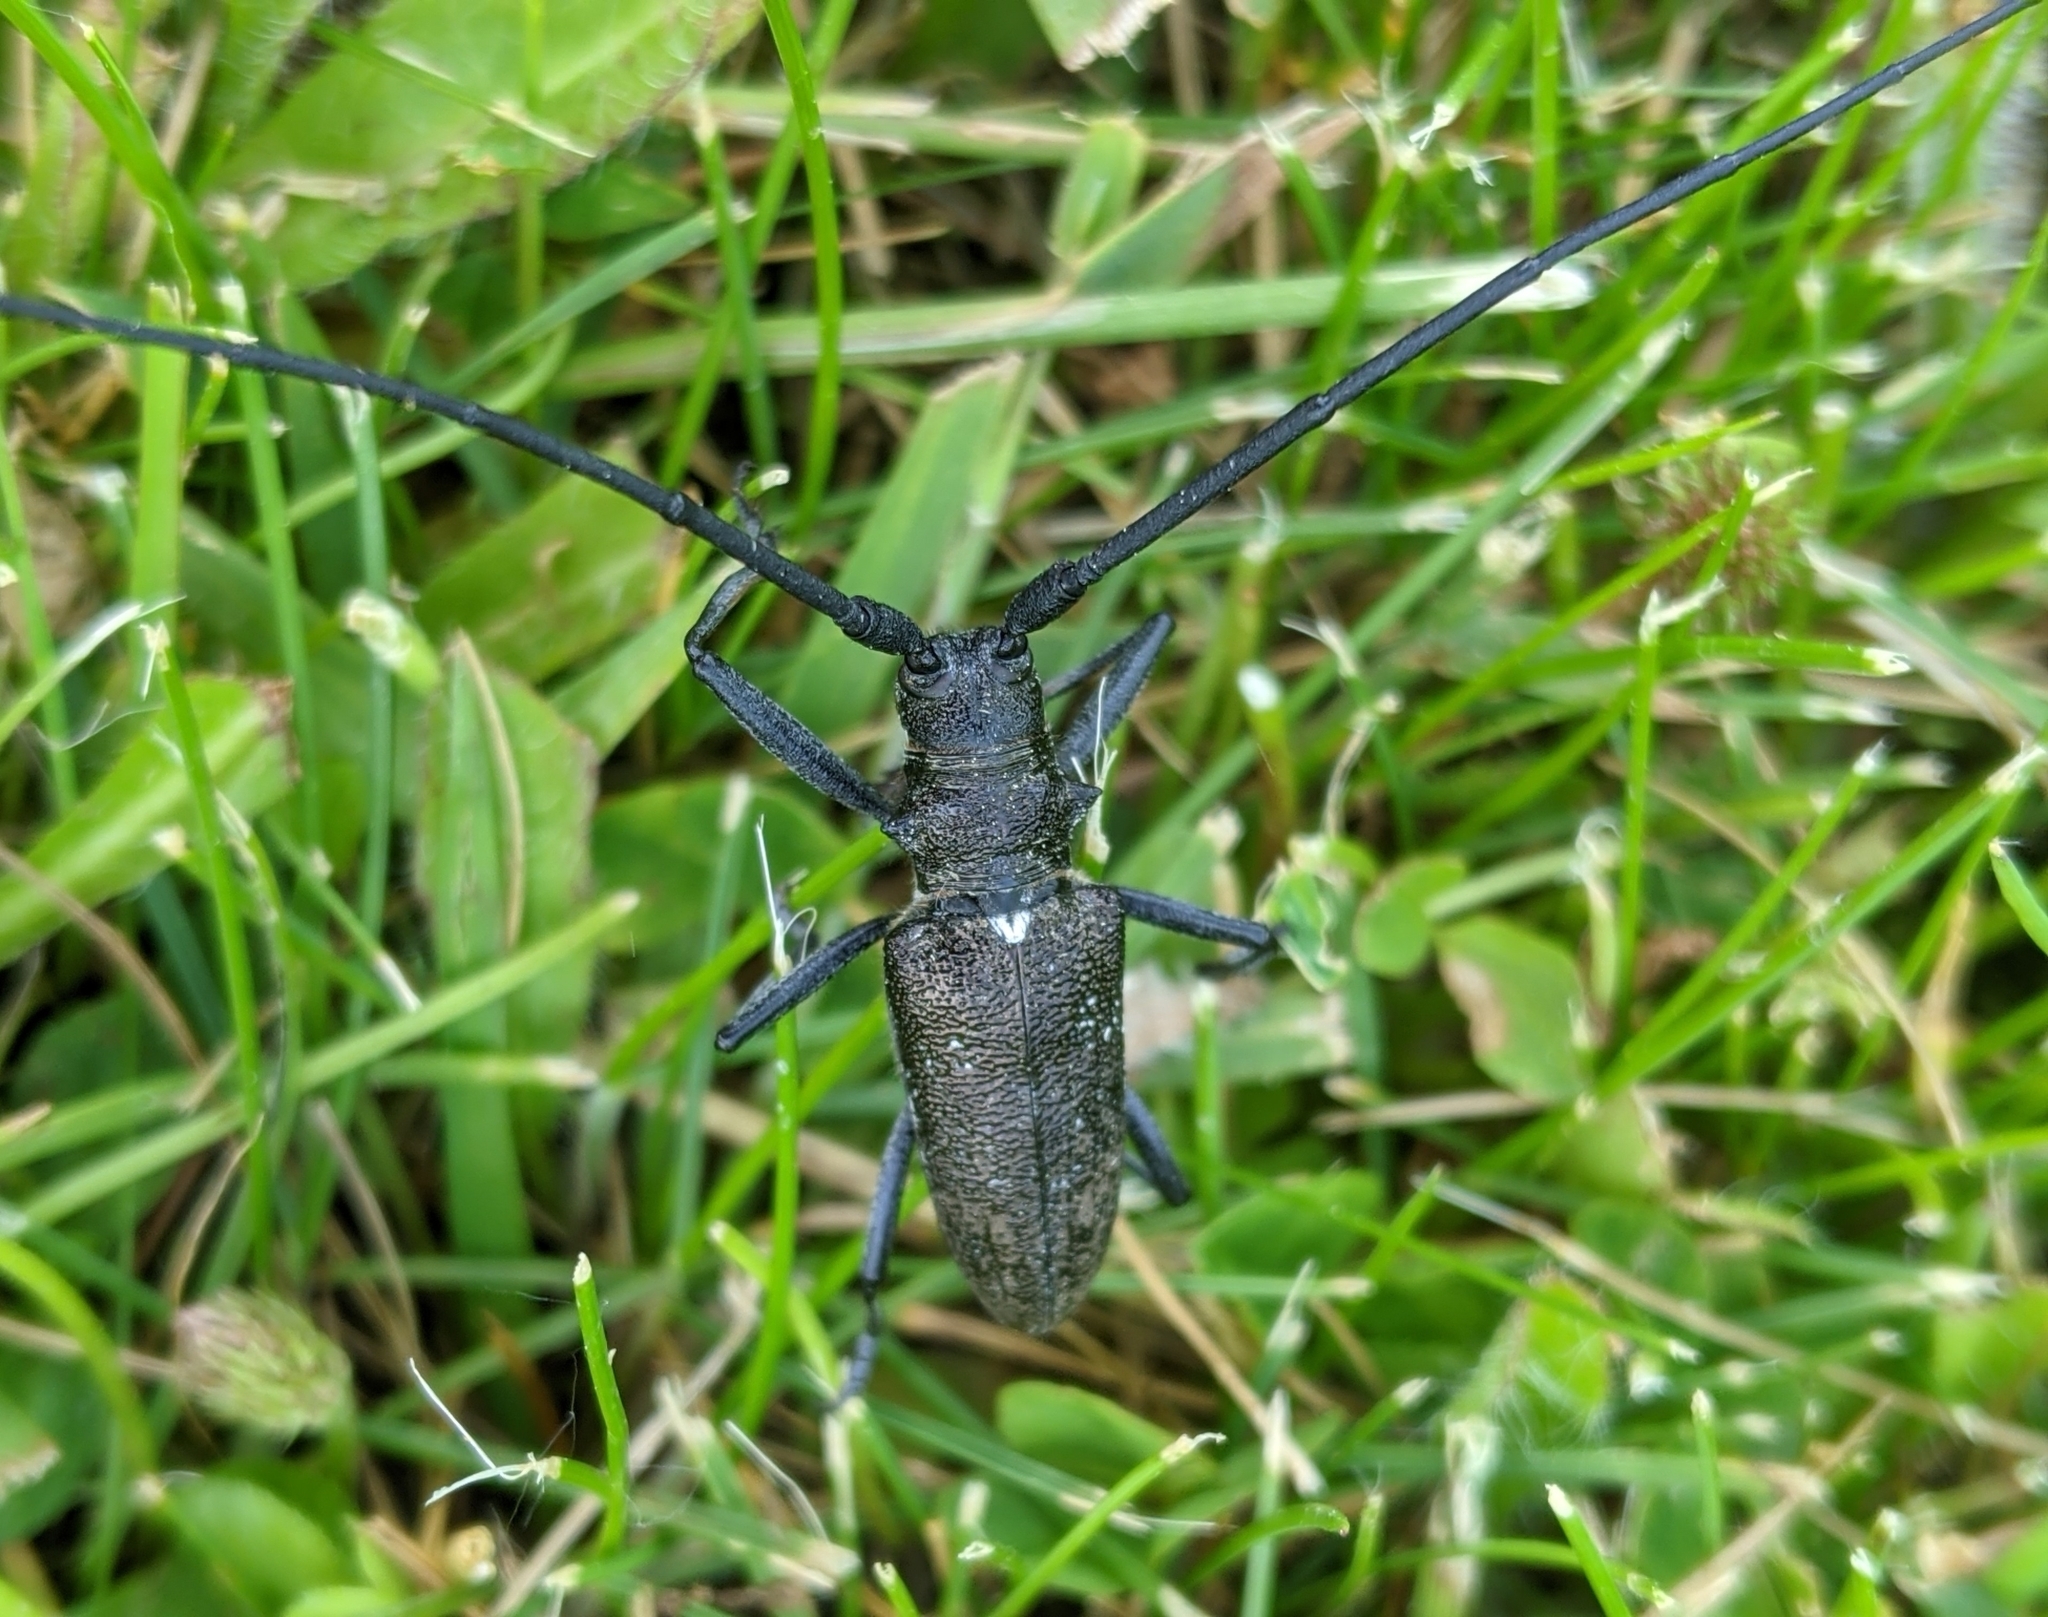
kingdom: Animalia
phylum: Arthropoda
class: Insecta
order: Coleoptera
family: Cerambycidae
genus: Monochamus
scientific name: Monochamus scutellatus
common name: White-spotted sawyer beetle
